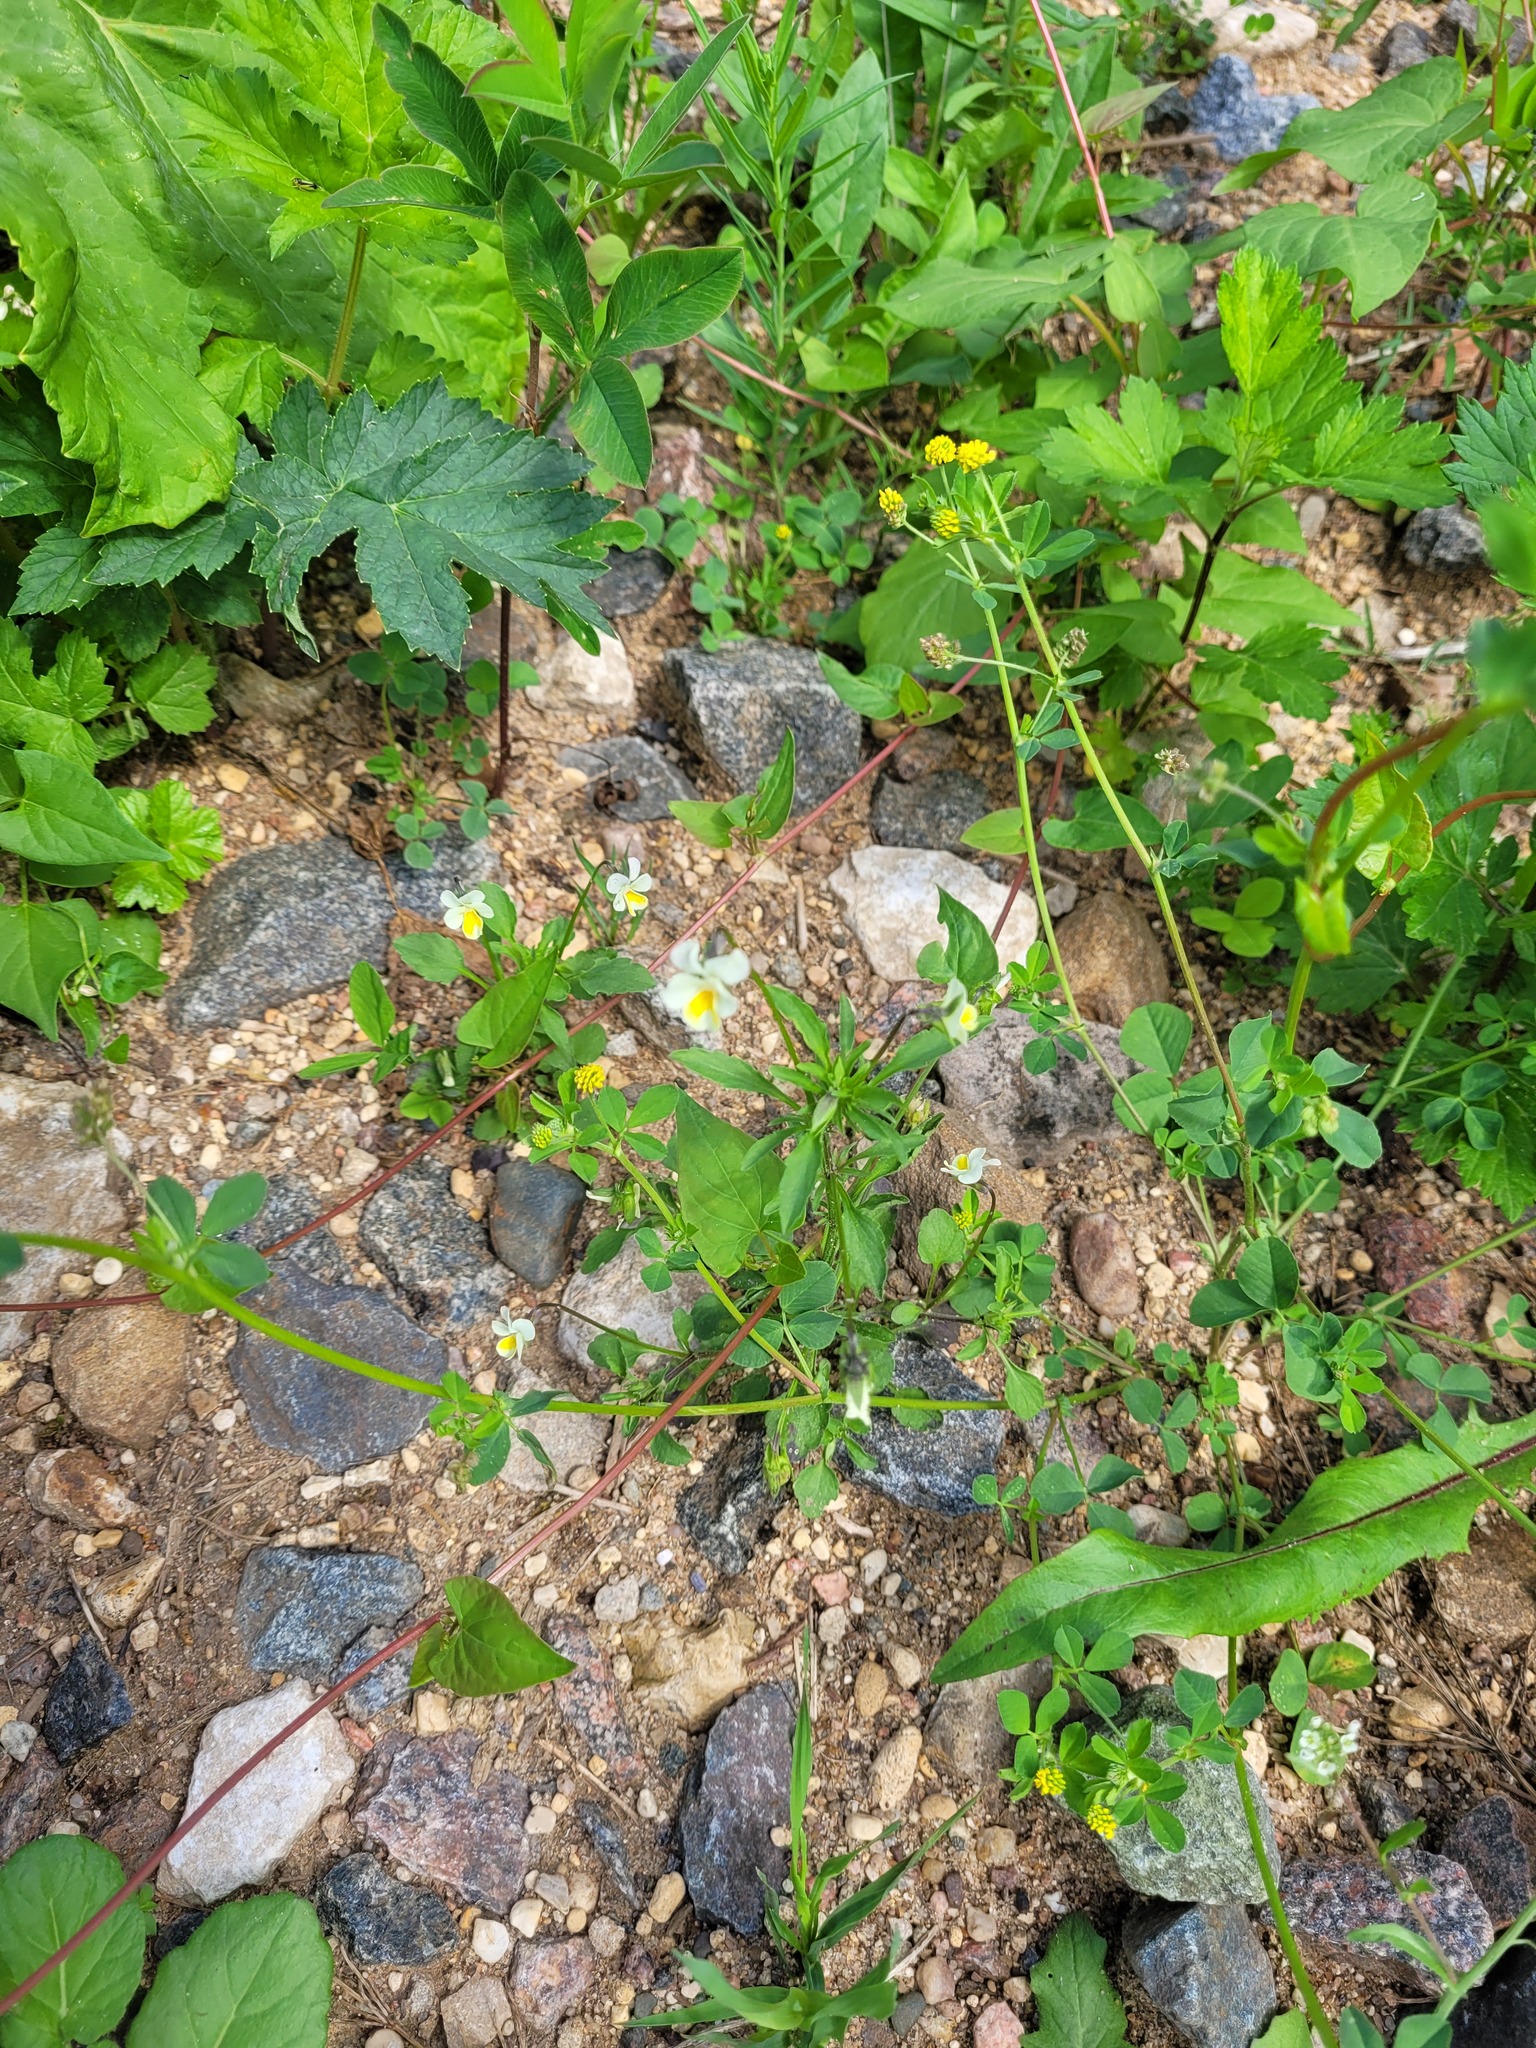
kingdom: Plantae
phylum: Tracheophyta
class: Magnoliopsida
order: Malpighiales
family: Violaceae
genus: Viola
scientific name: Viola contempta
